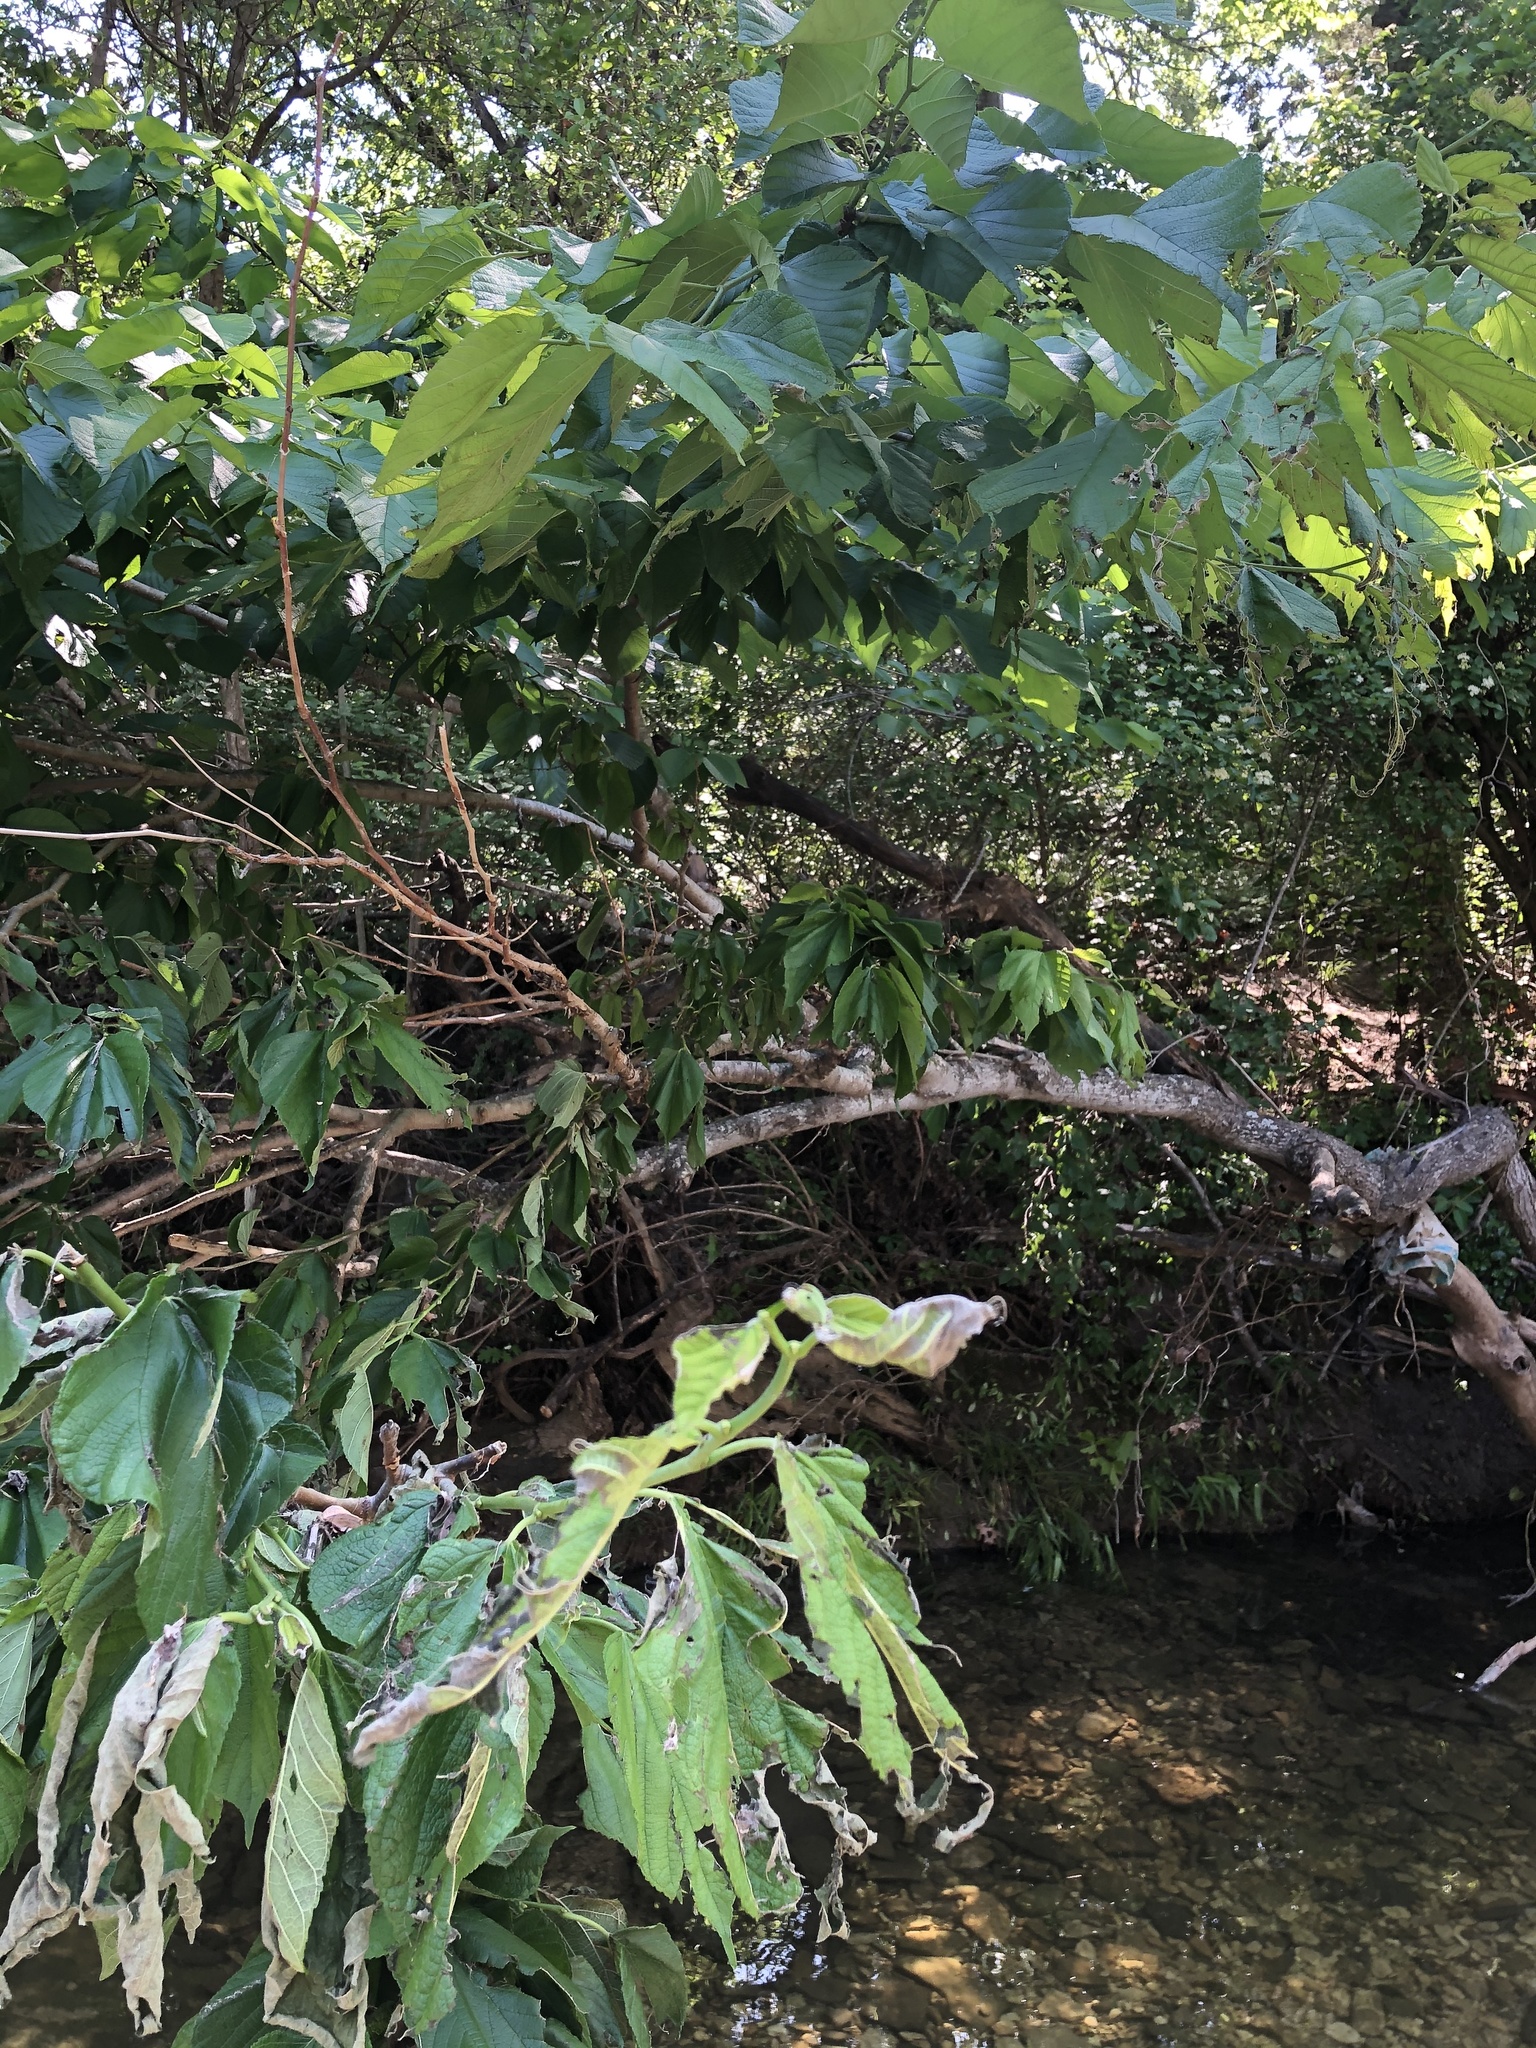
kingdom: Plantae
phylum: Tracheophyta
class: Magnoliopsida
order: Rosales
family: Moraceae
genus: Morus
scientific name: Morus rubra
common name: Red mulberry
